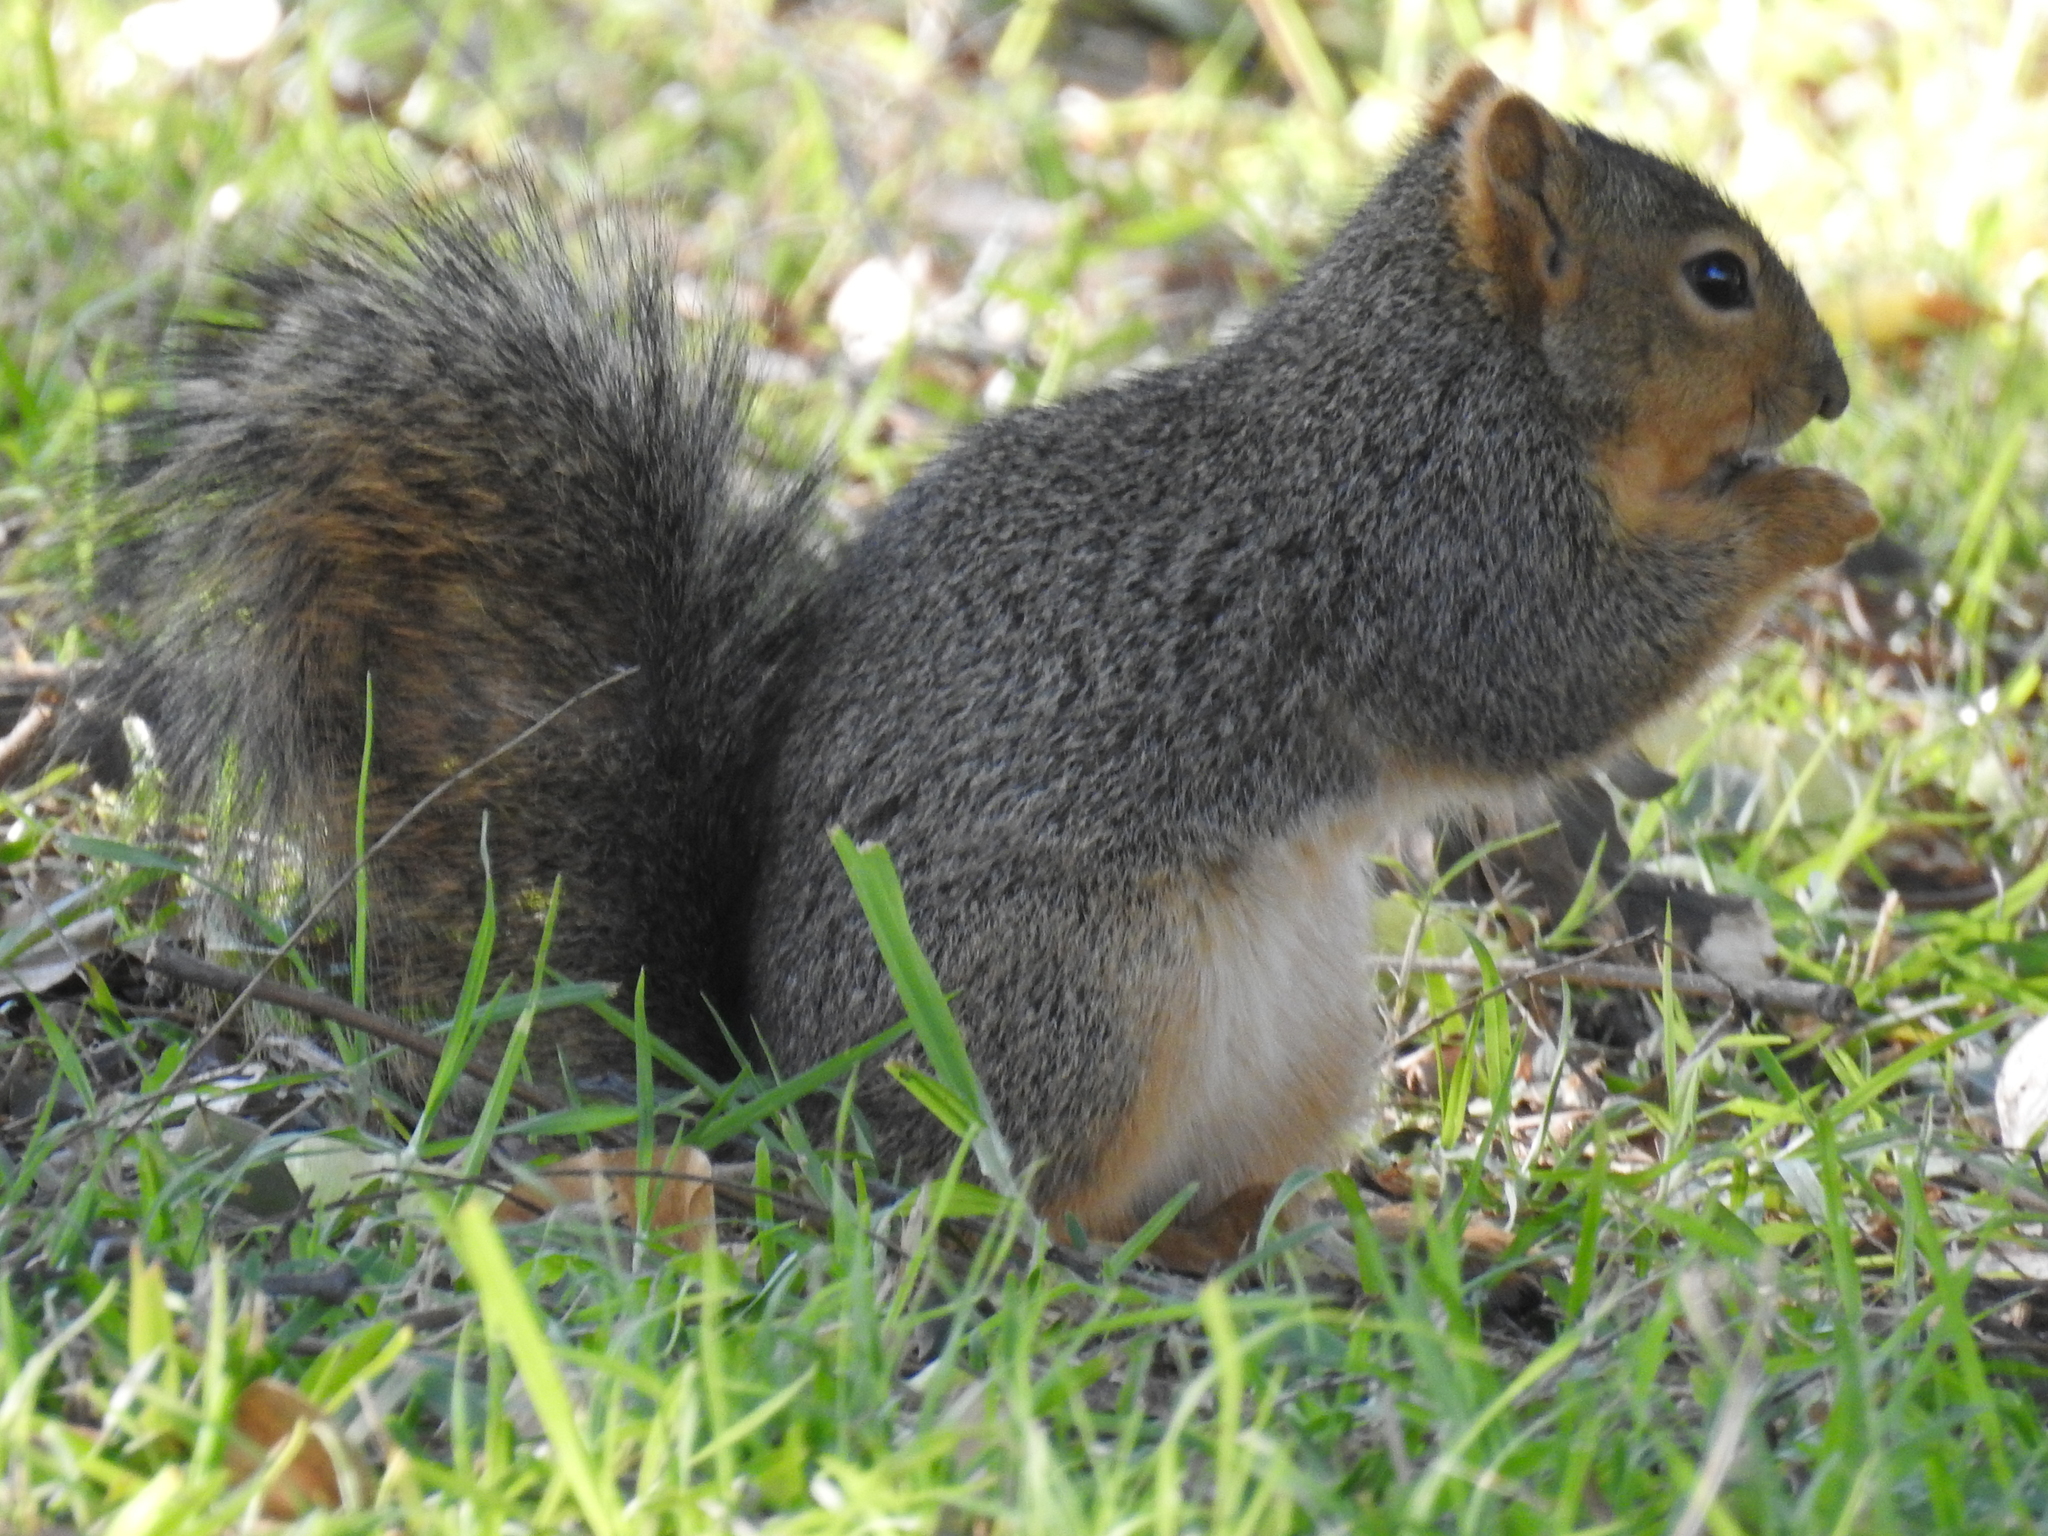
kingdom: Animalia
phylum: Chordata
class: Mammalia
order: Rodentia
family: Sciuridae
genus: Sciurus
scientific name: Sciurus niger
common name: Fox squirrel
